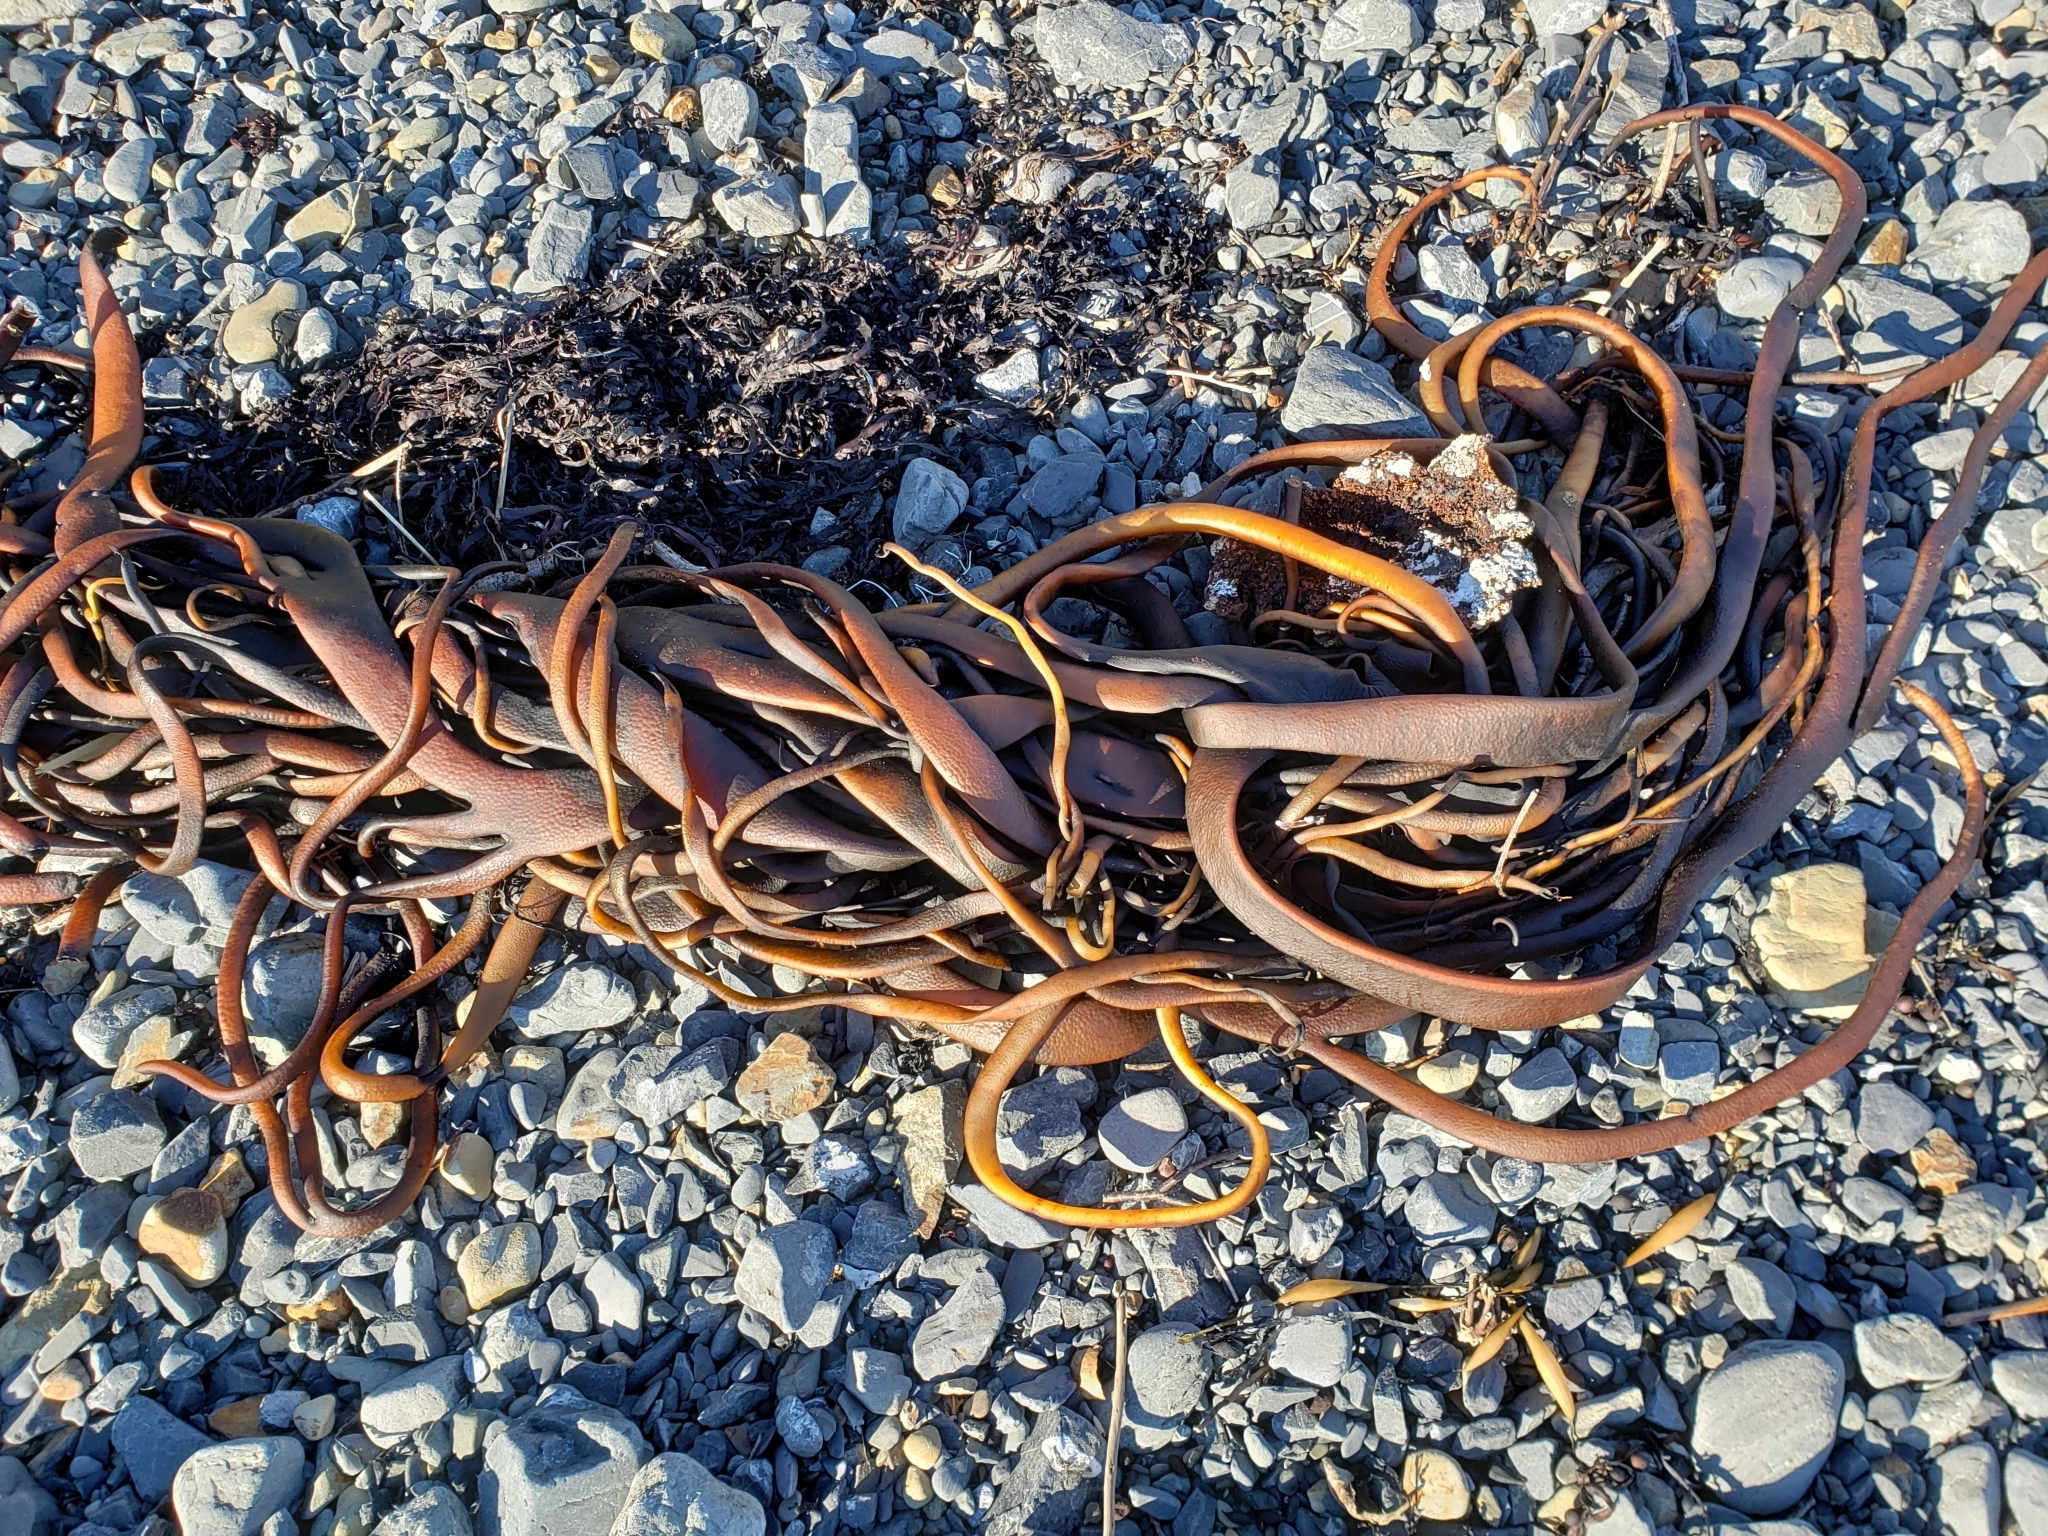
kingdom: Chromista
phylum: Ochrophyta
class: Phaeophyceae
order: Fucales
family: Durvillaeaceae
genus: Durvillaea
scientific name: Durvillaea antarctica
